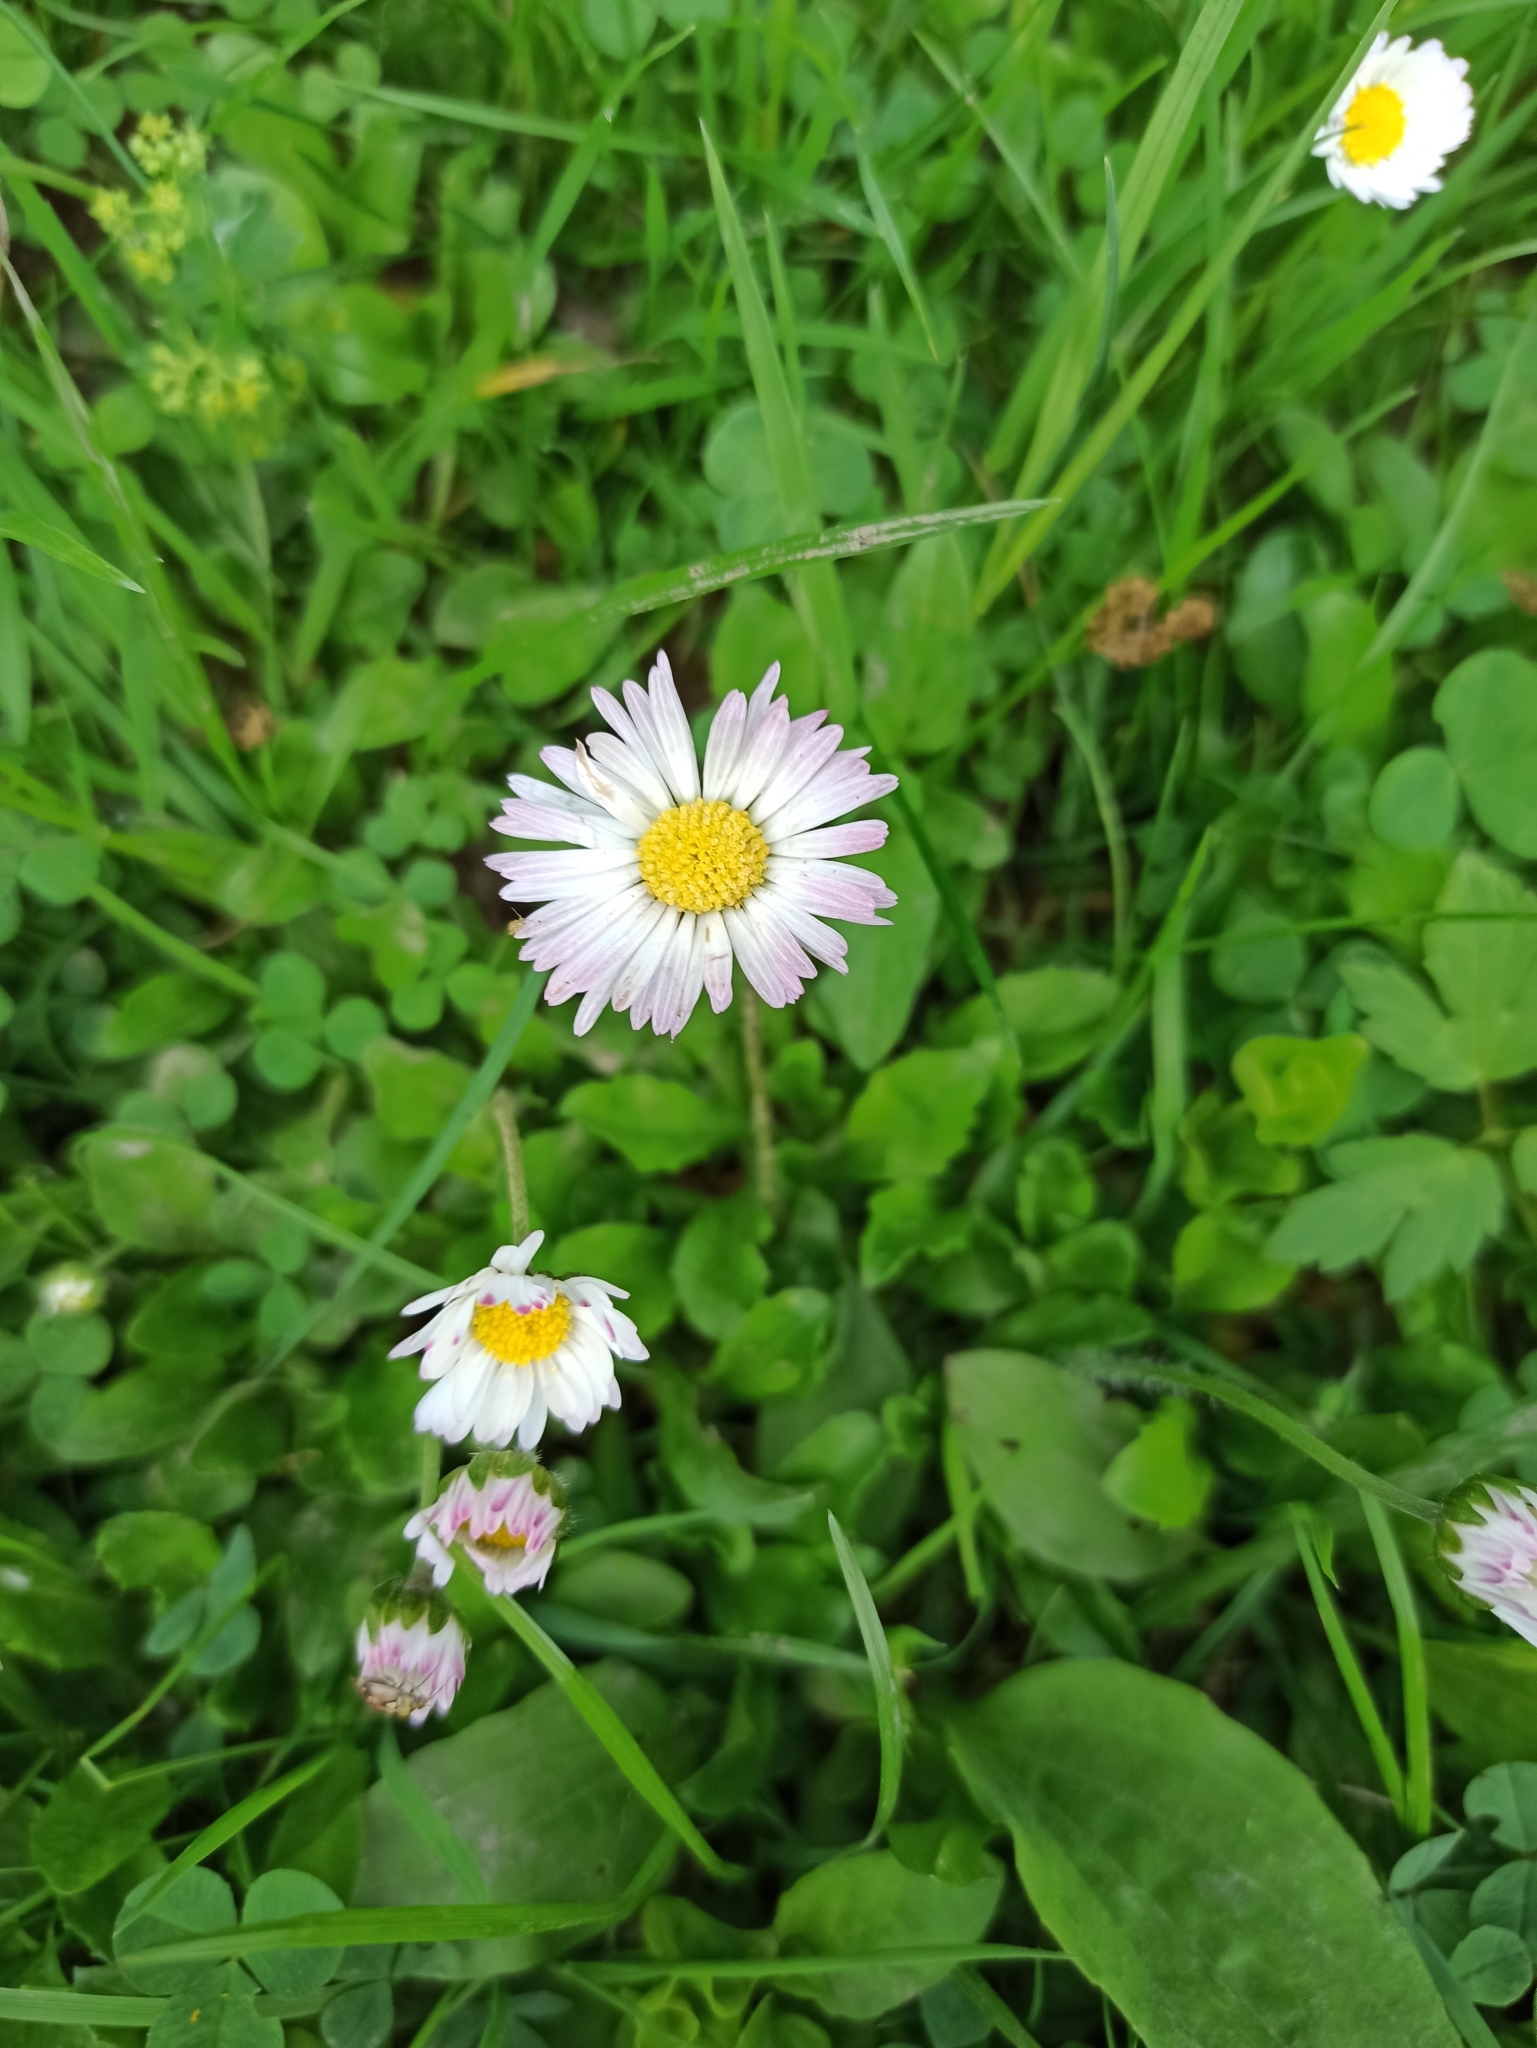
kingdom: Plantae
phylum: Tracheophyta
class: Magnoliopsida
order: Asterales
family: Asteraceae
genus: Bellis
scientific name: Bellis perennis
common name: Lawndaisy
